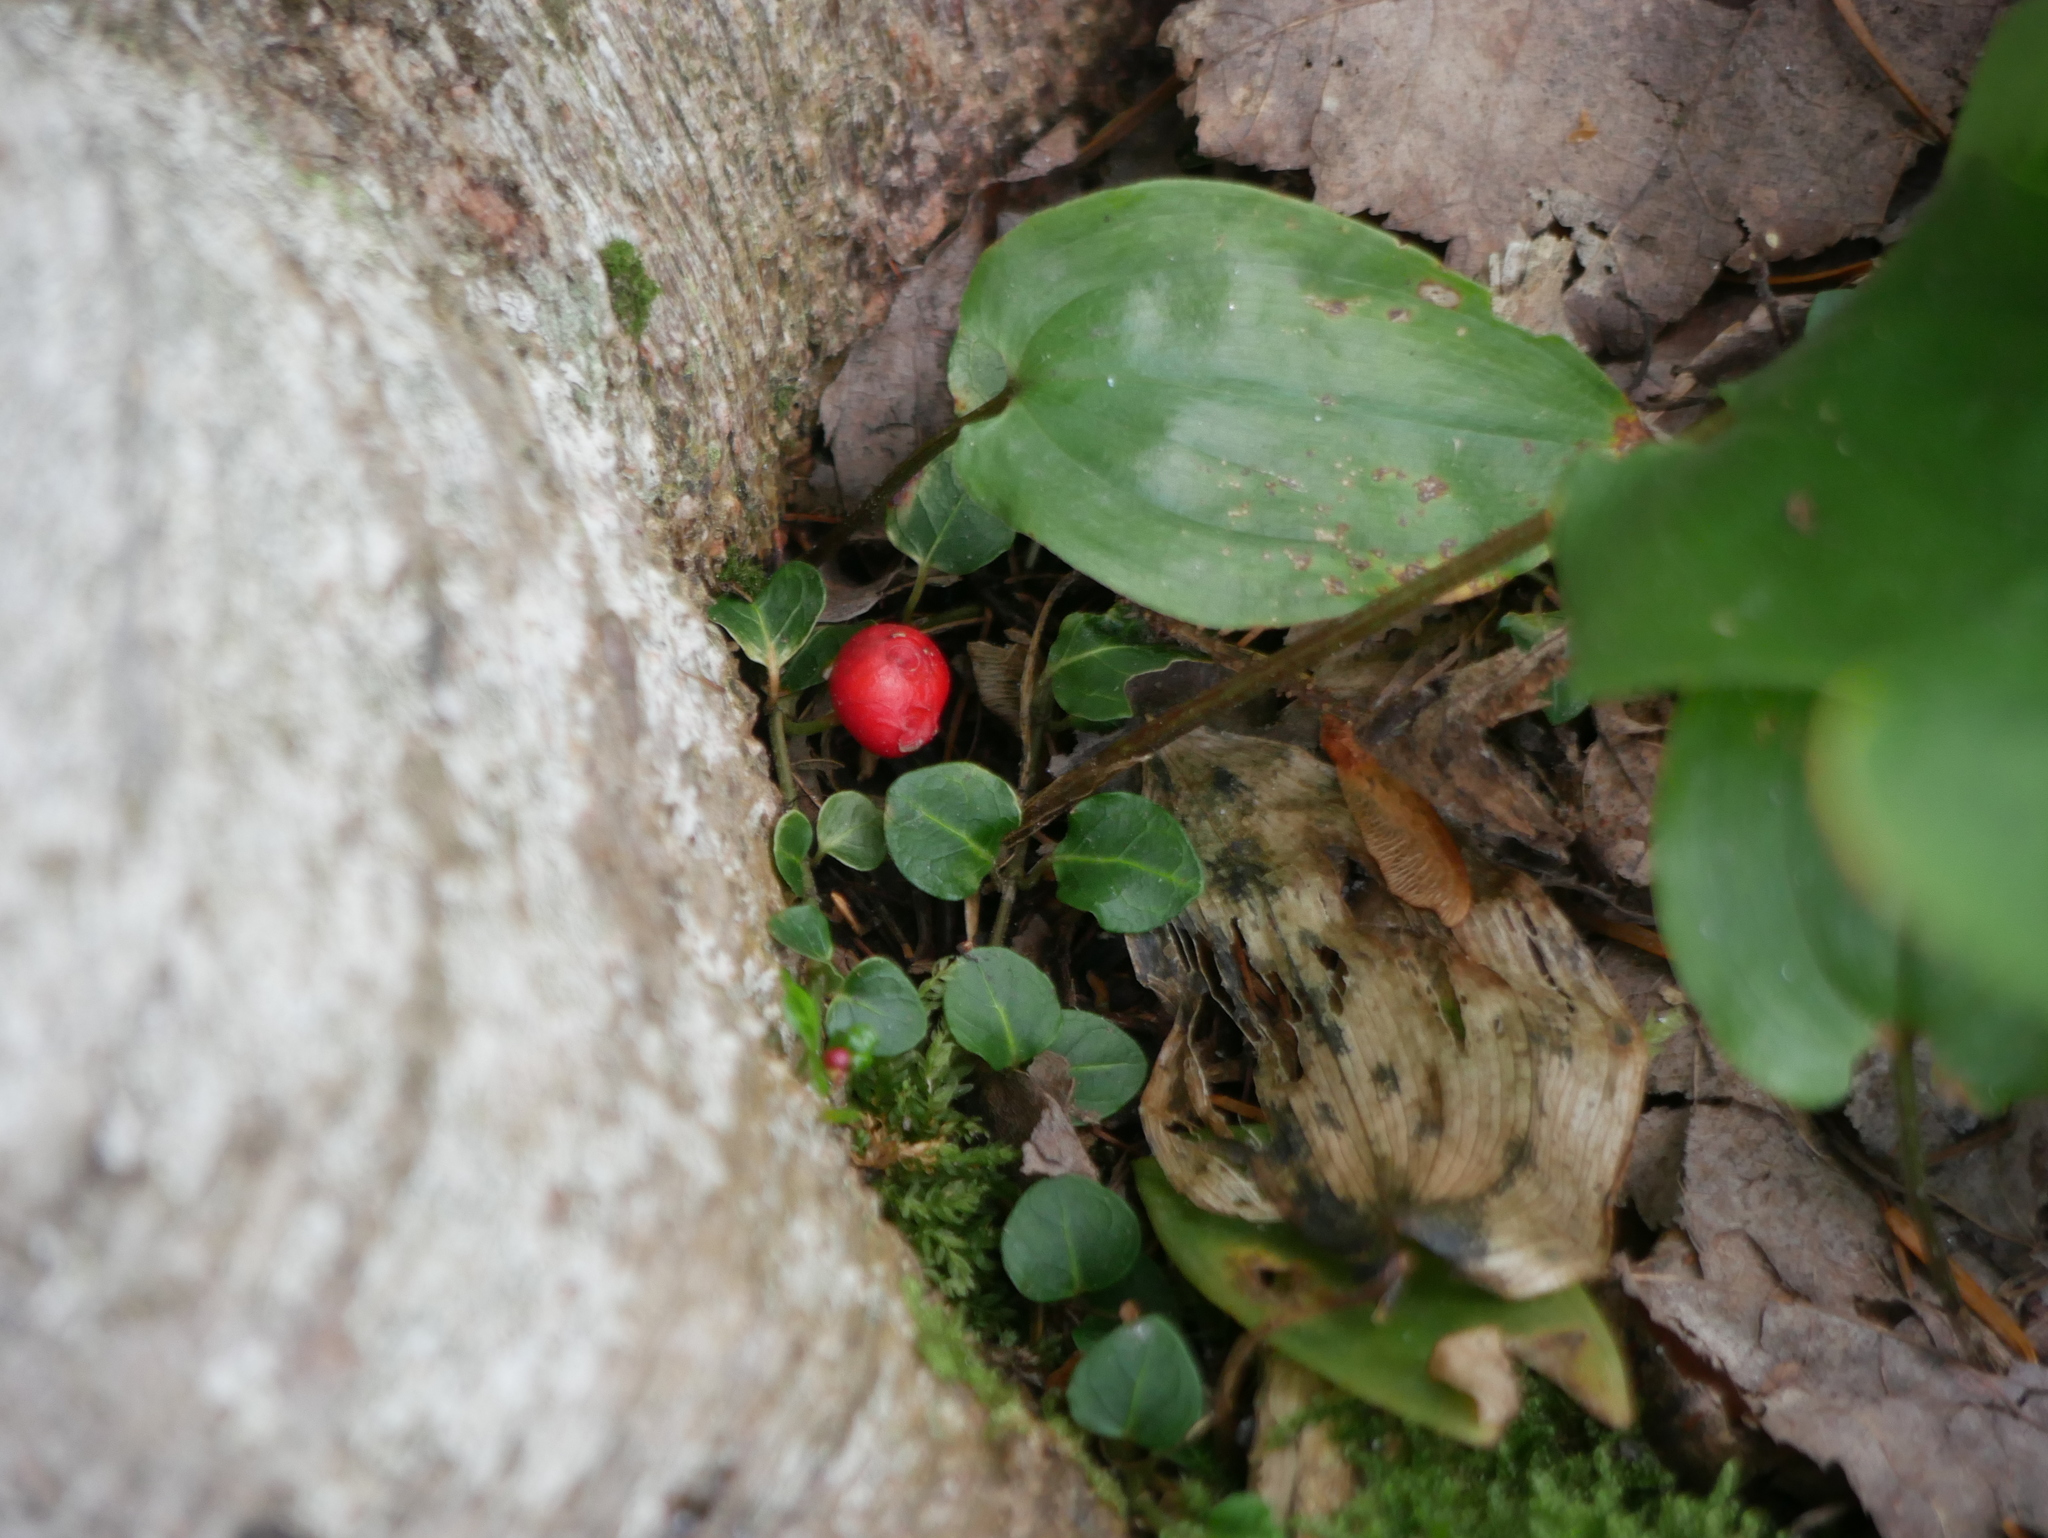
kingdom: Plantae
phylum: Tracheophyta
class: Magnoliopsida
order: Gentianales
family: Rubiaceae
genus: Mitchella
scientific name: Mitchella repens
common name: Partridge-berry
